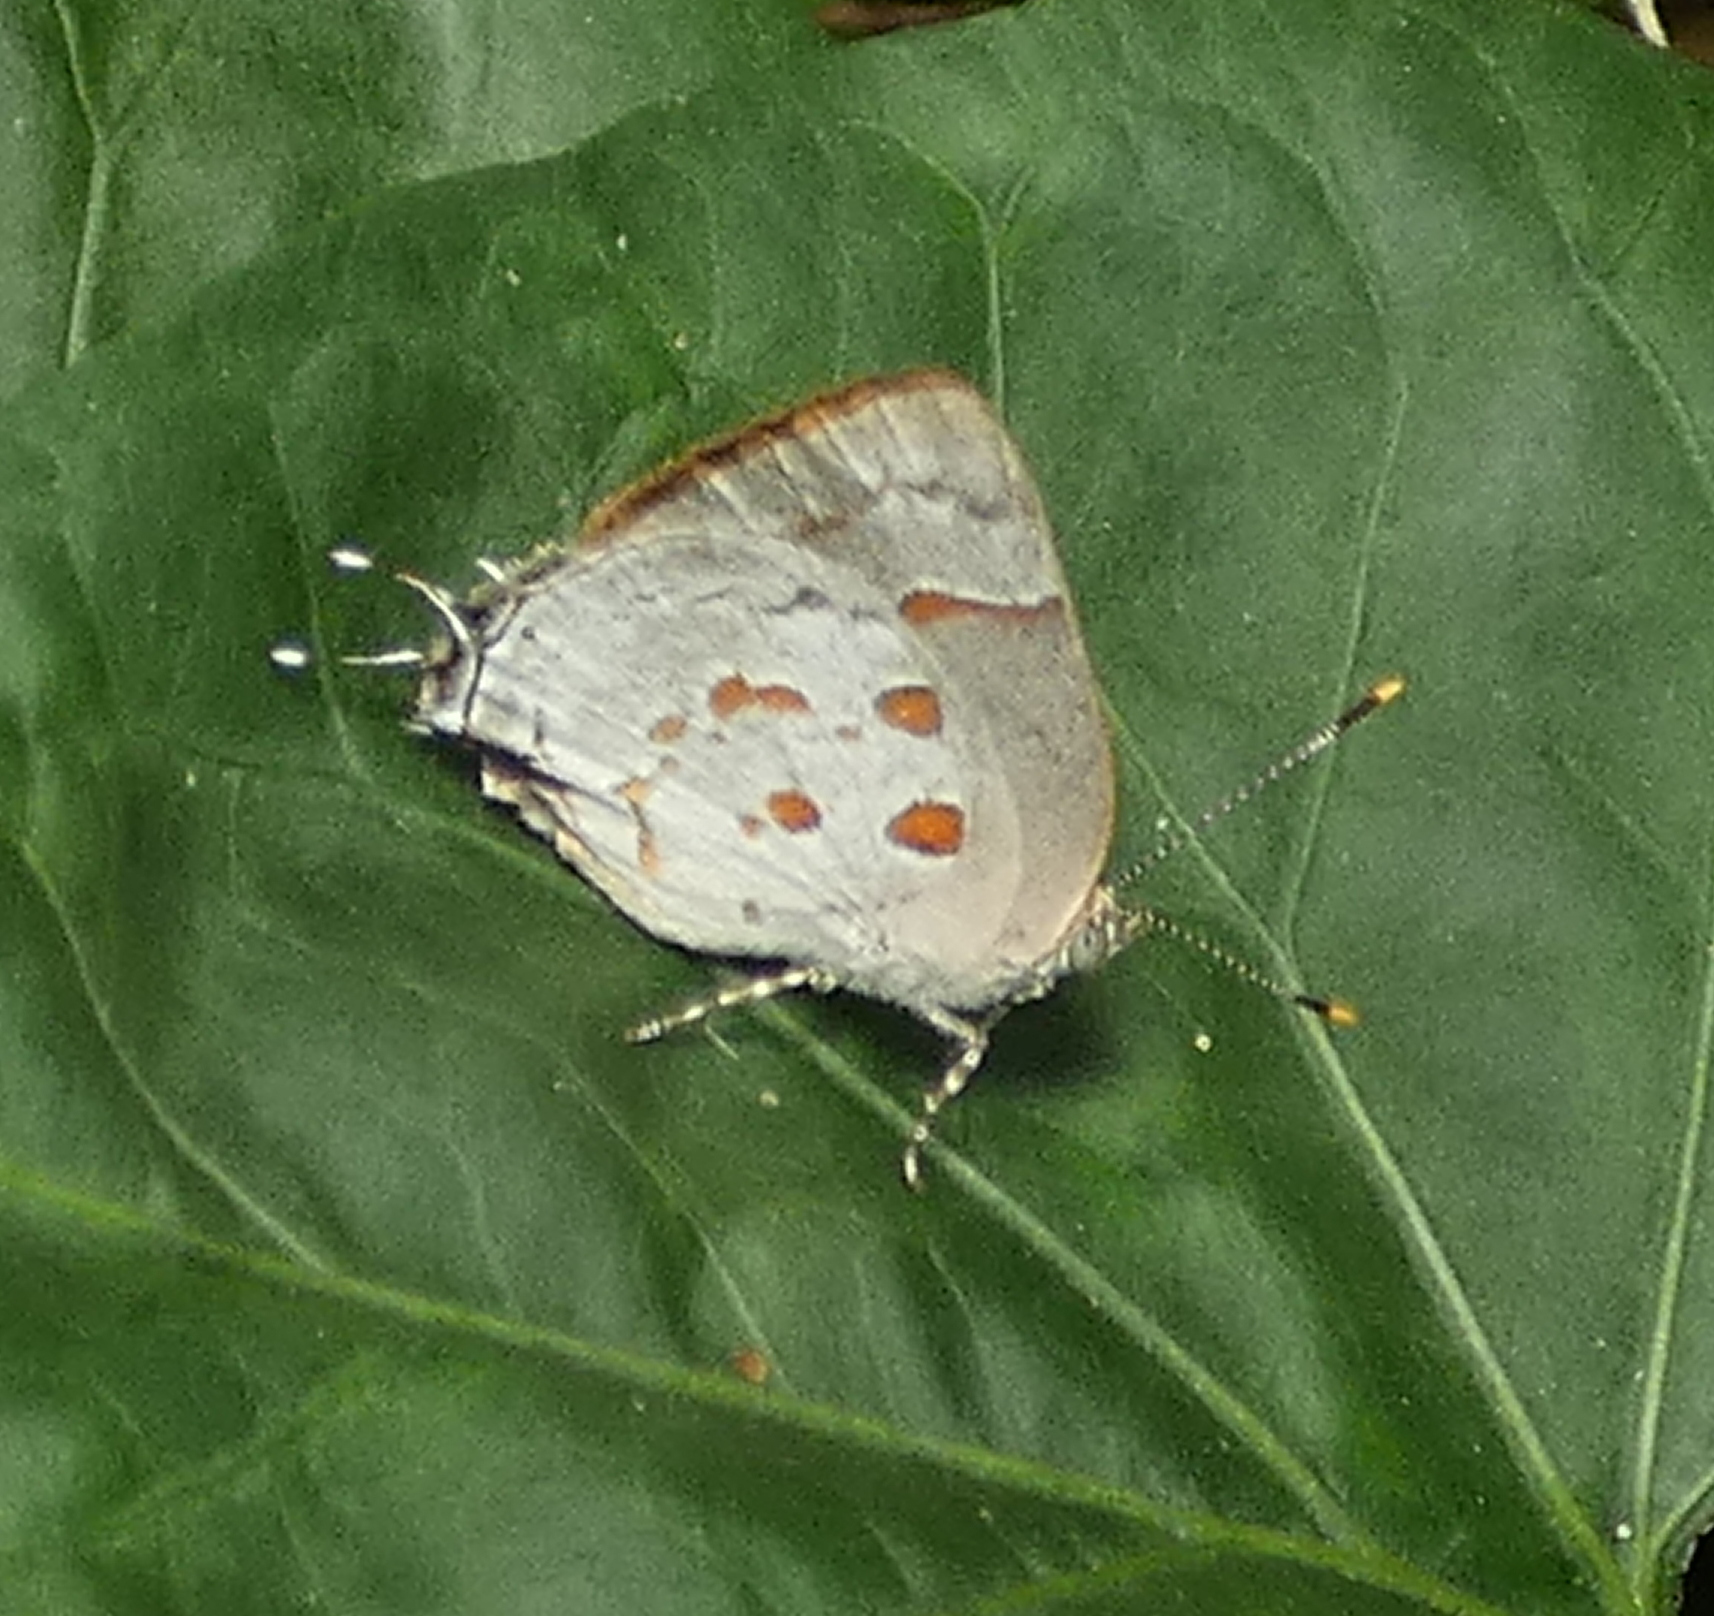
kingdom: Animalia
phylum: Arthropoda
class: Insecta
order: Lepidoptera
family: Lycaenidae
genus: Tmolus
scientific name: Tmolus echion
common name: Red-spotted hairstreak
